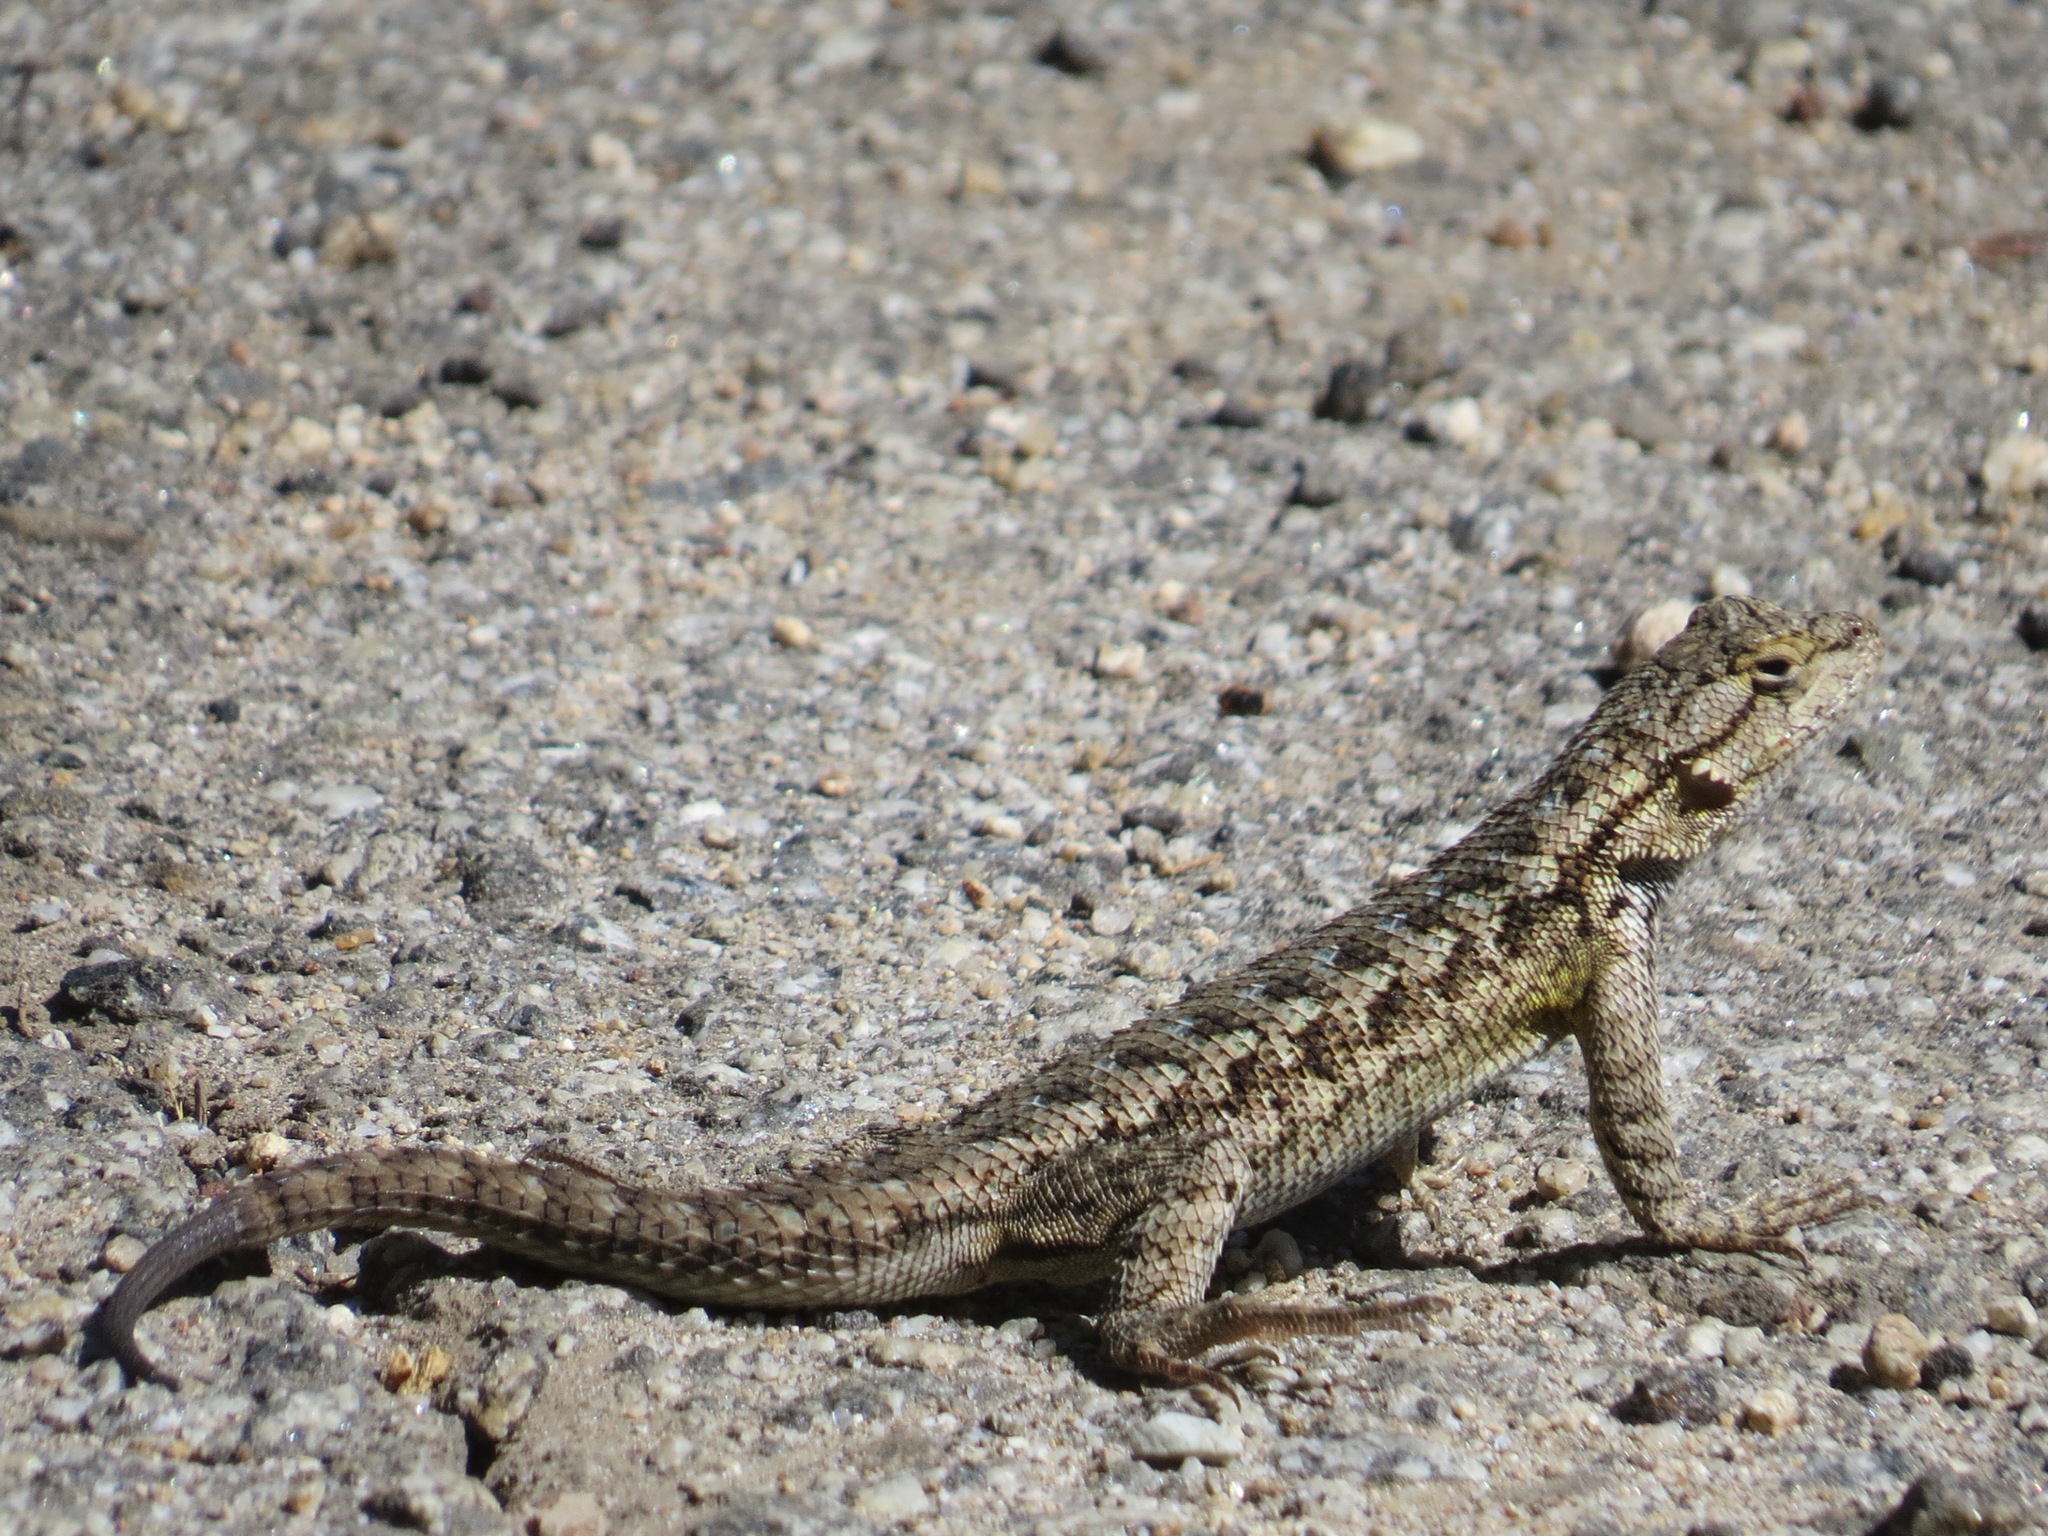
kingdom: Animalia
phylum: Chordata
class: Squamata
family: Phrynosomatidae
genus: Sceloporus
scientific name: Sceloporus occidentalis
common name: Western fence lizard
